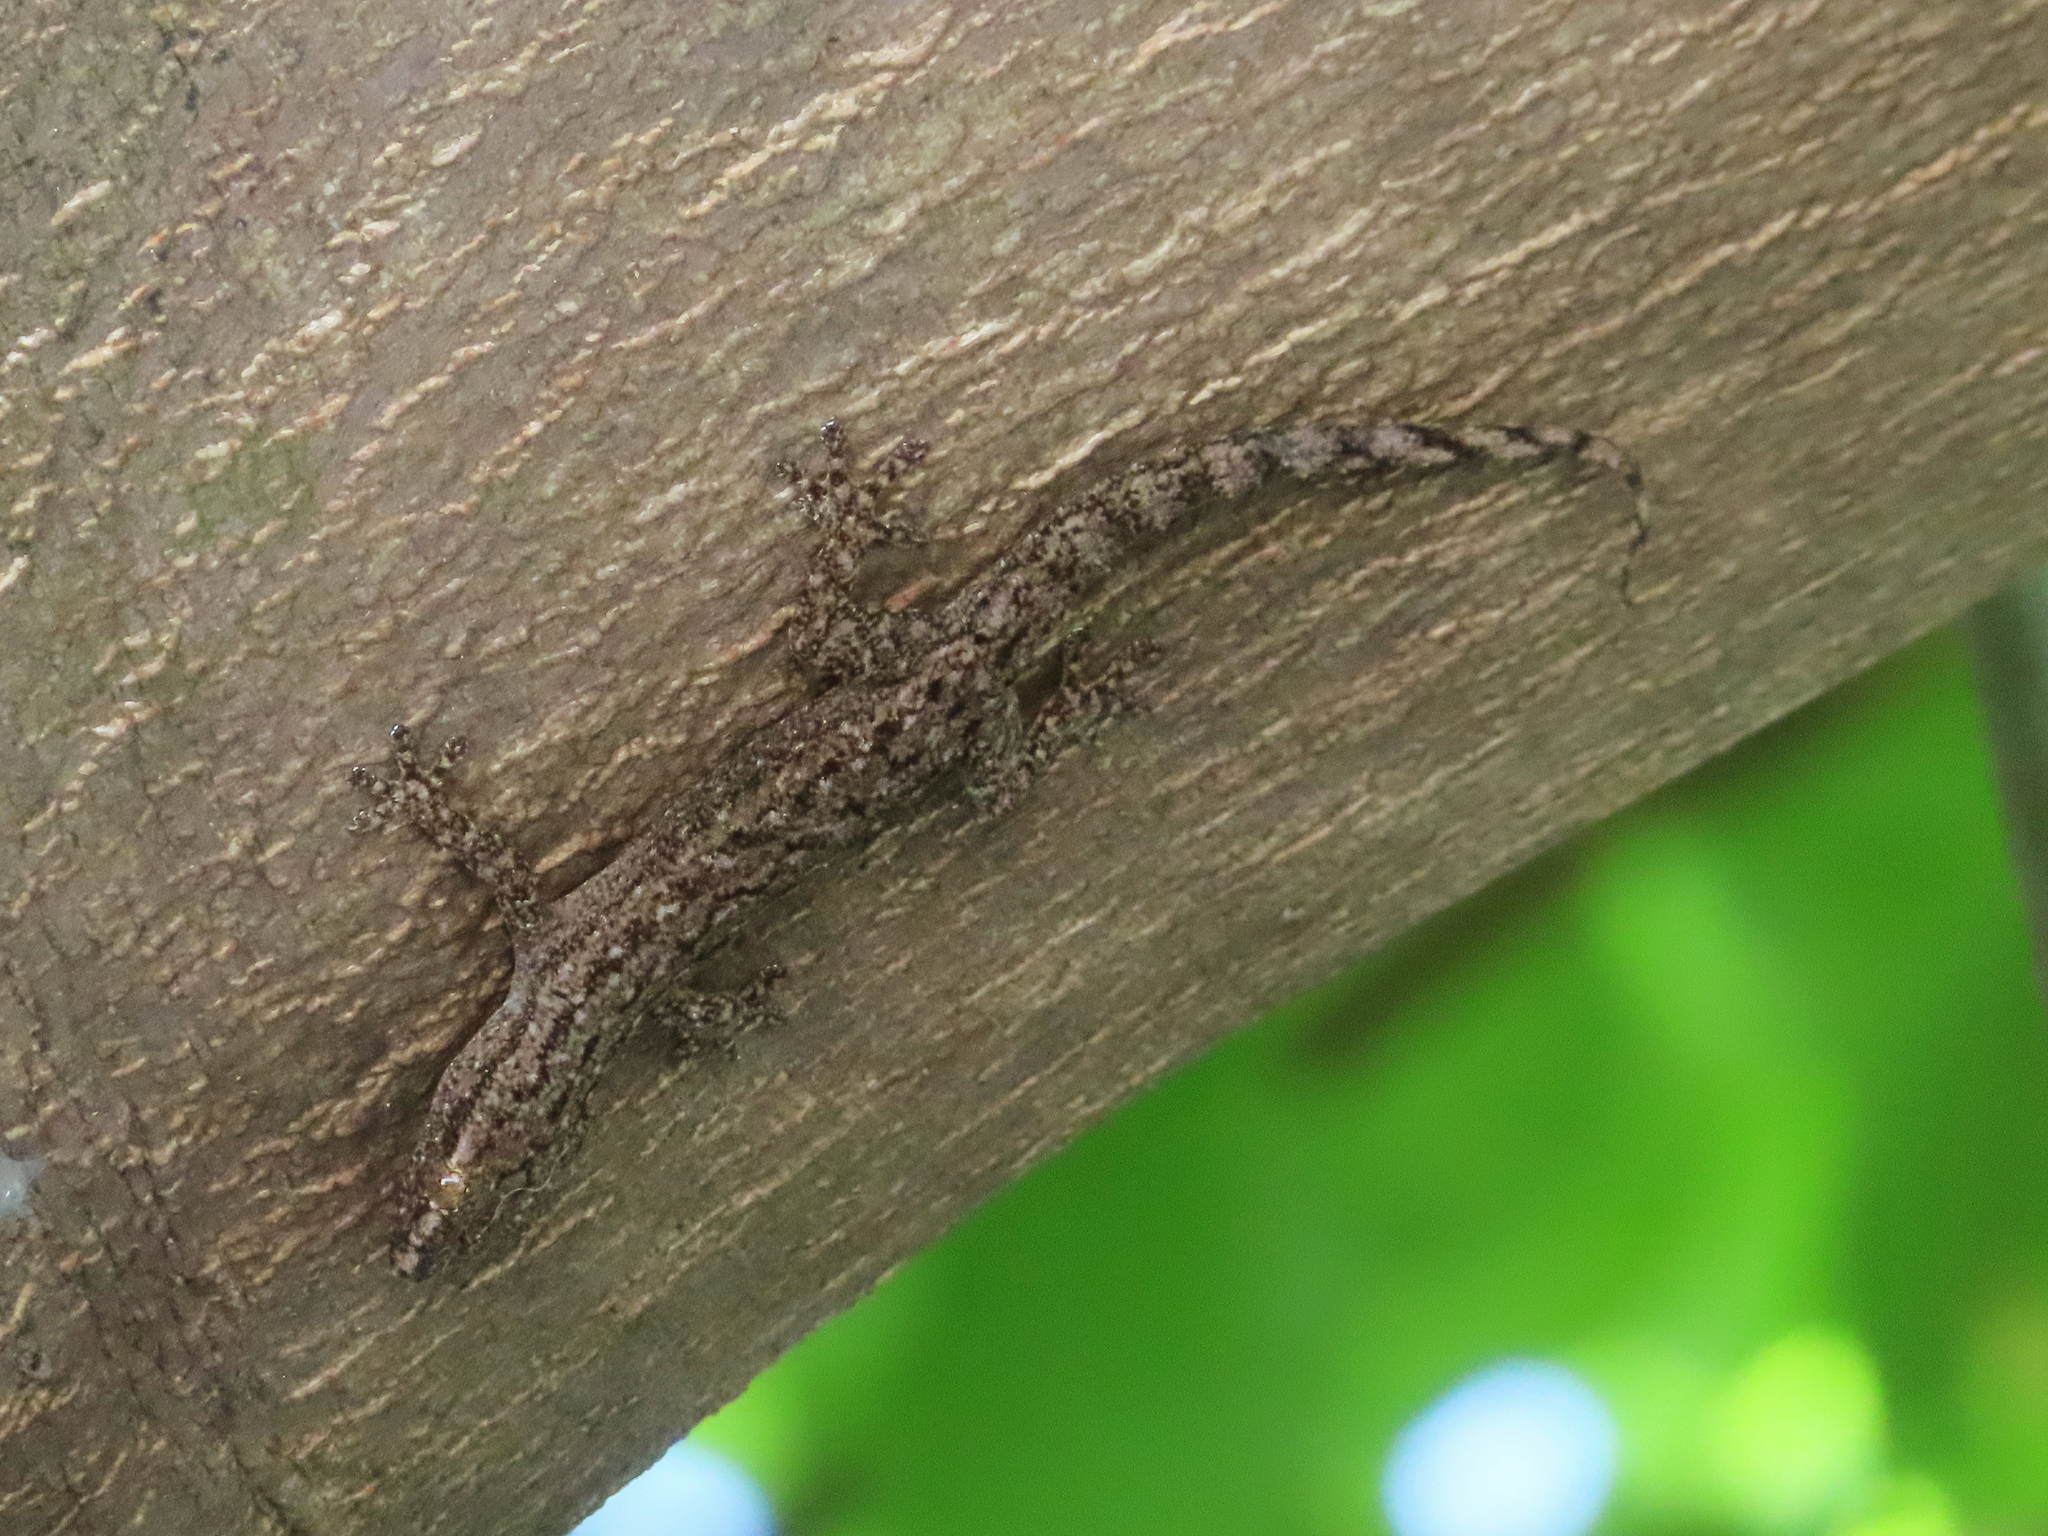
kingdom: Animalia
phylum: Chordata
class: Squamata
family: Gekkonidae
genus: Hemidactylus
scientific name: Hemidactylus frenatus
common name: Common house gecko
